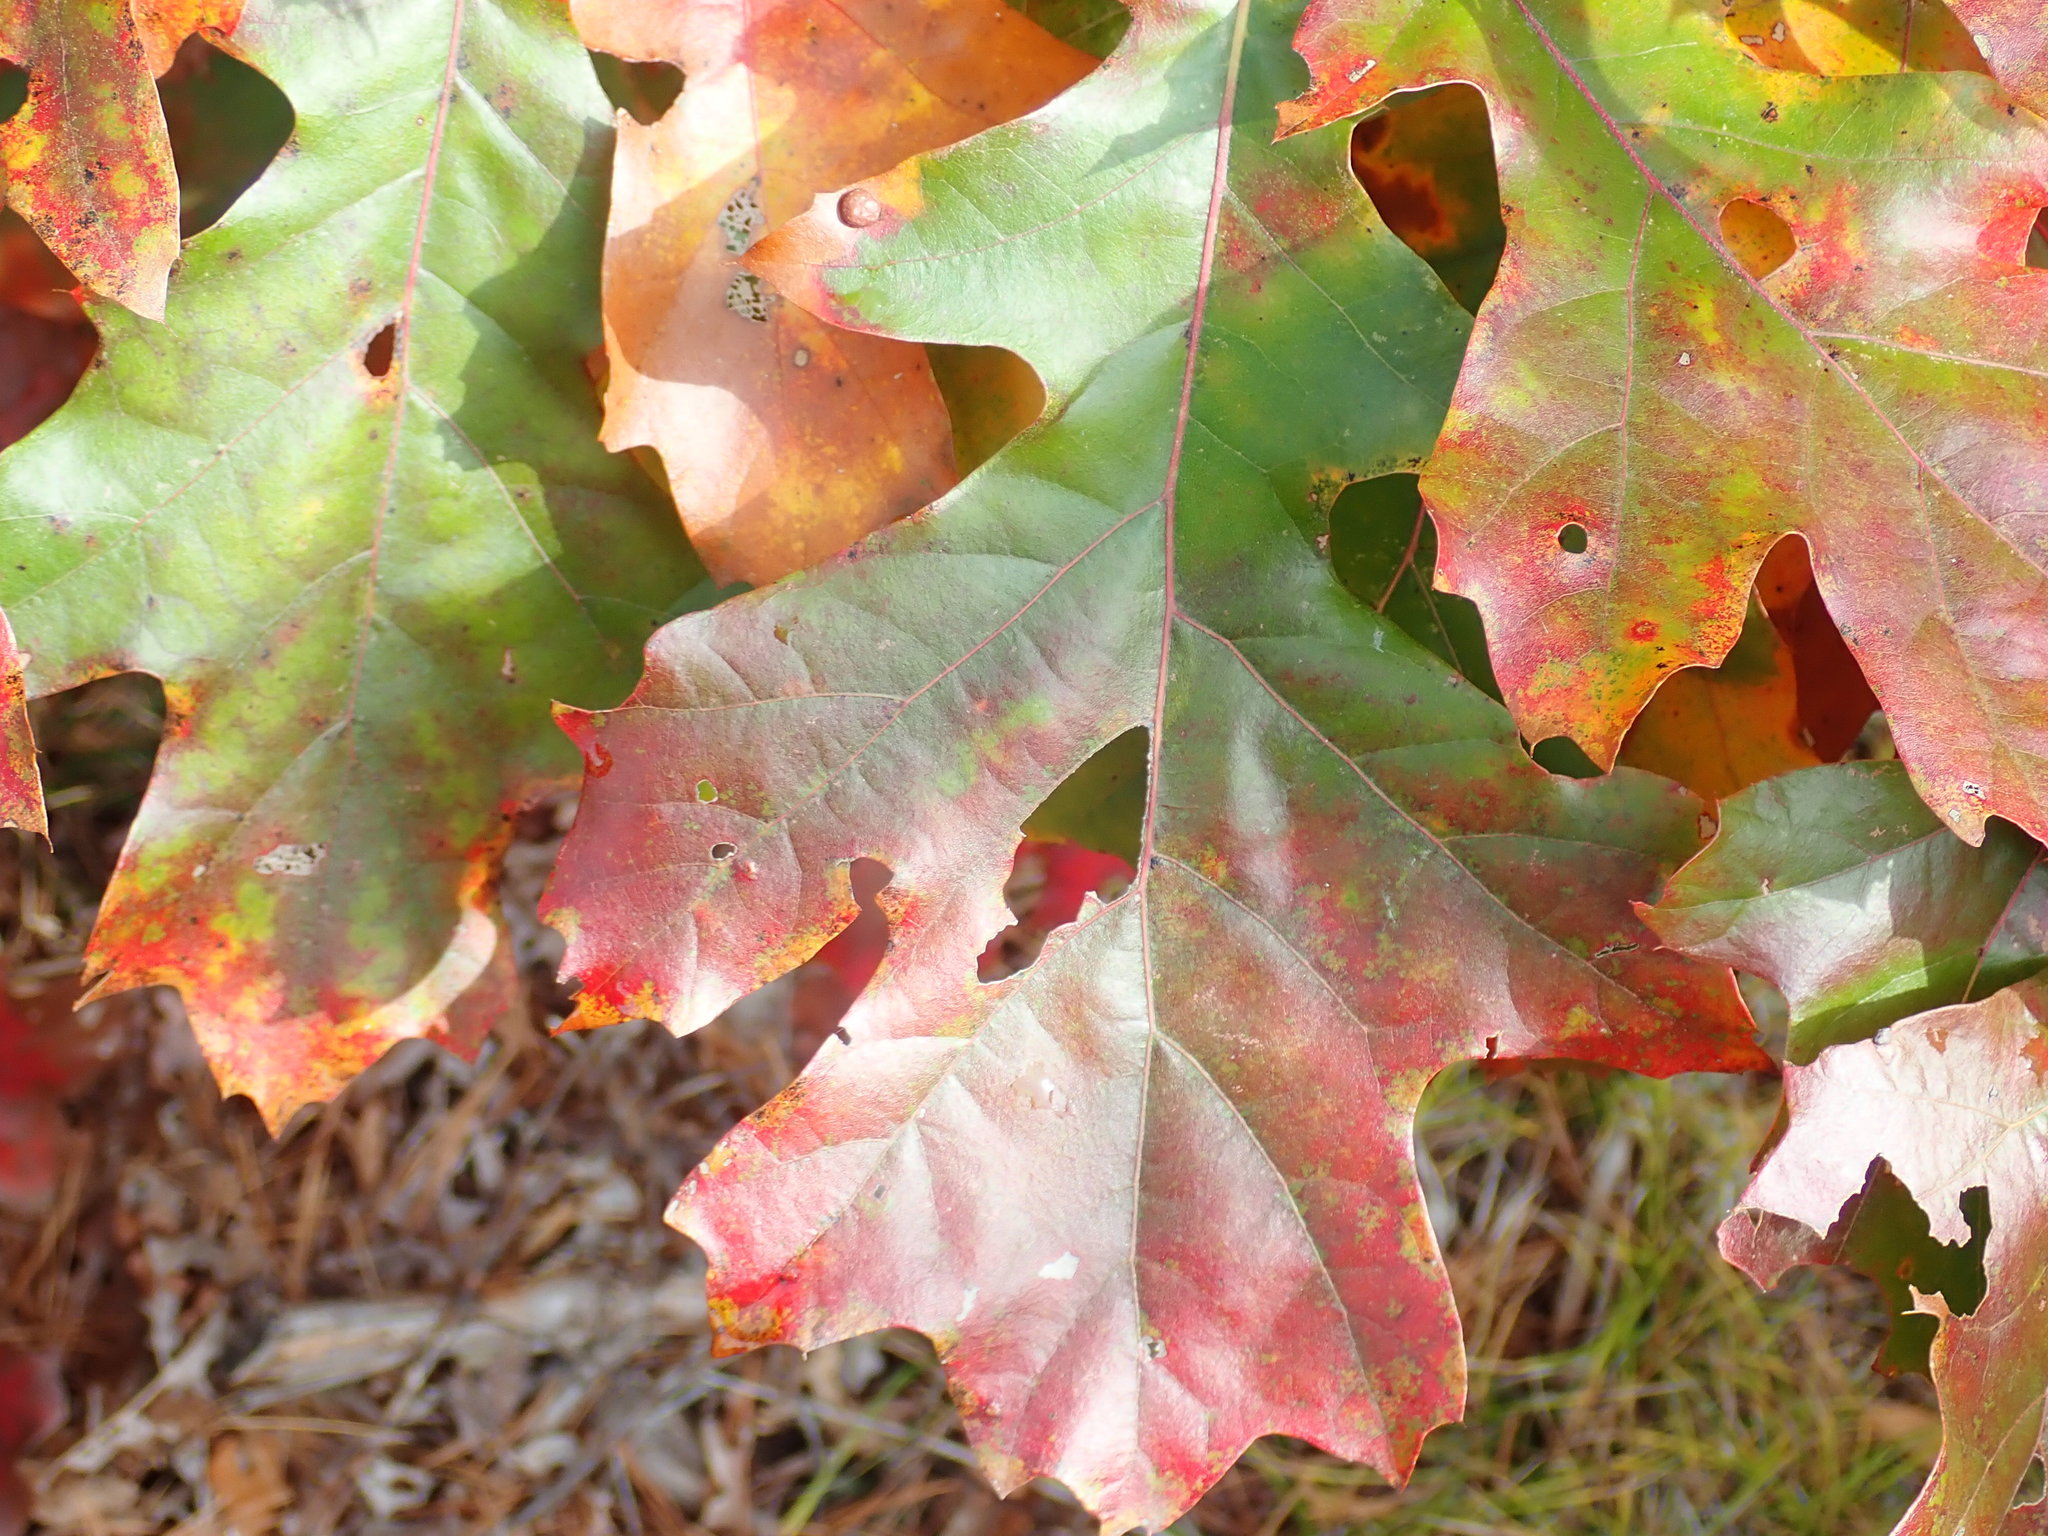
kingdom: Plantae
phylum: Tracheophyta
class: Magnoliopsida
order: Fagales
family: Fagaceae
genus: Quercus
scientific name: Quercus velutina
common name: Black oak
